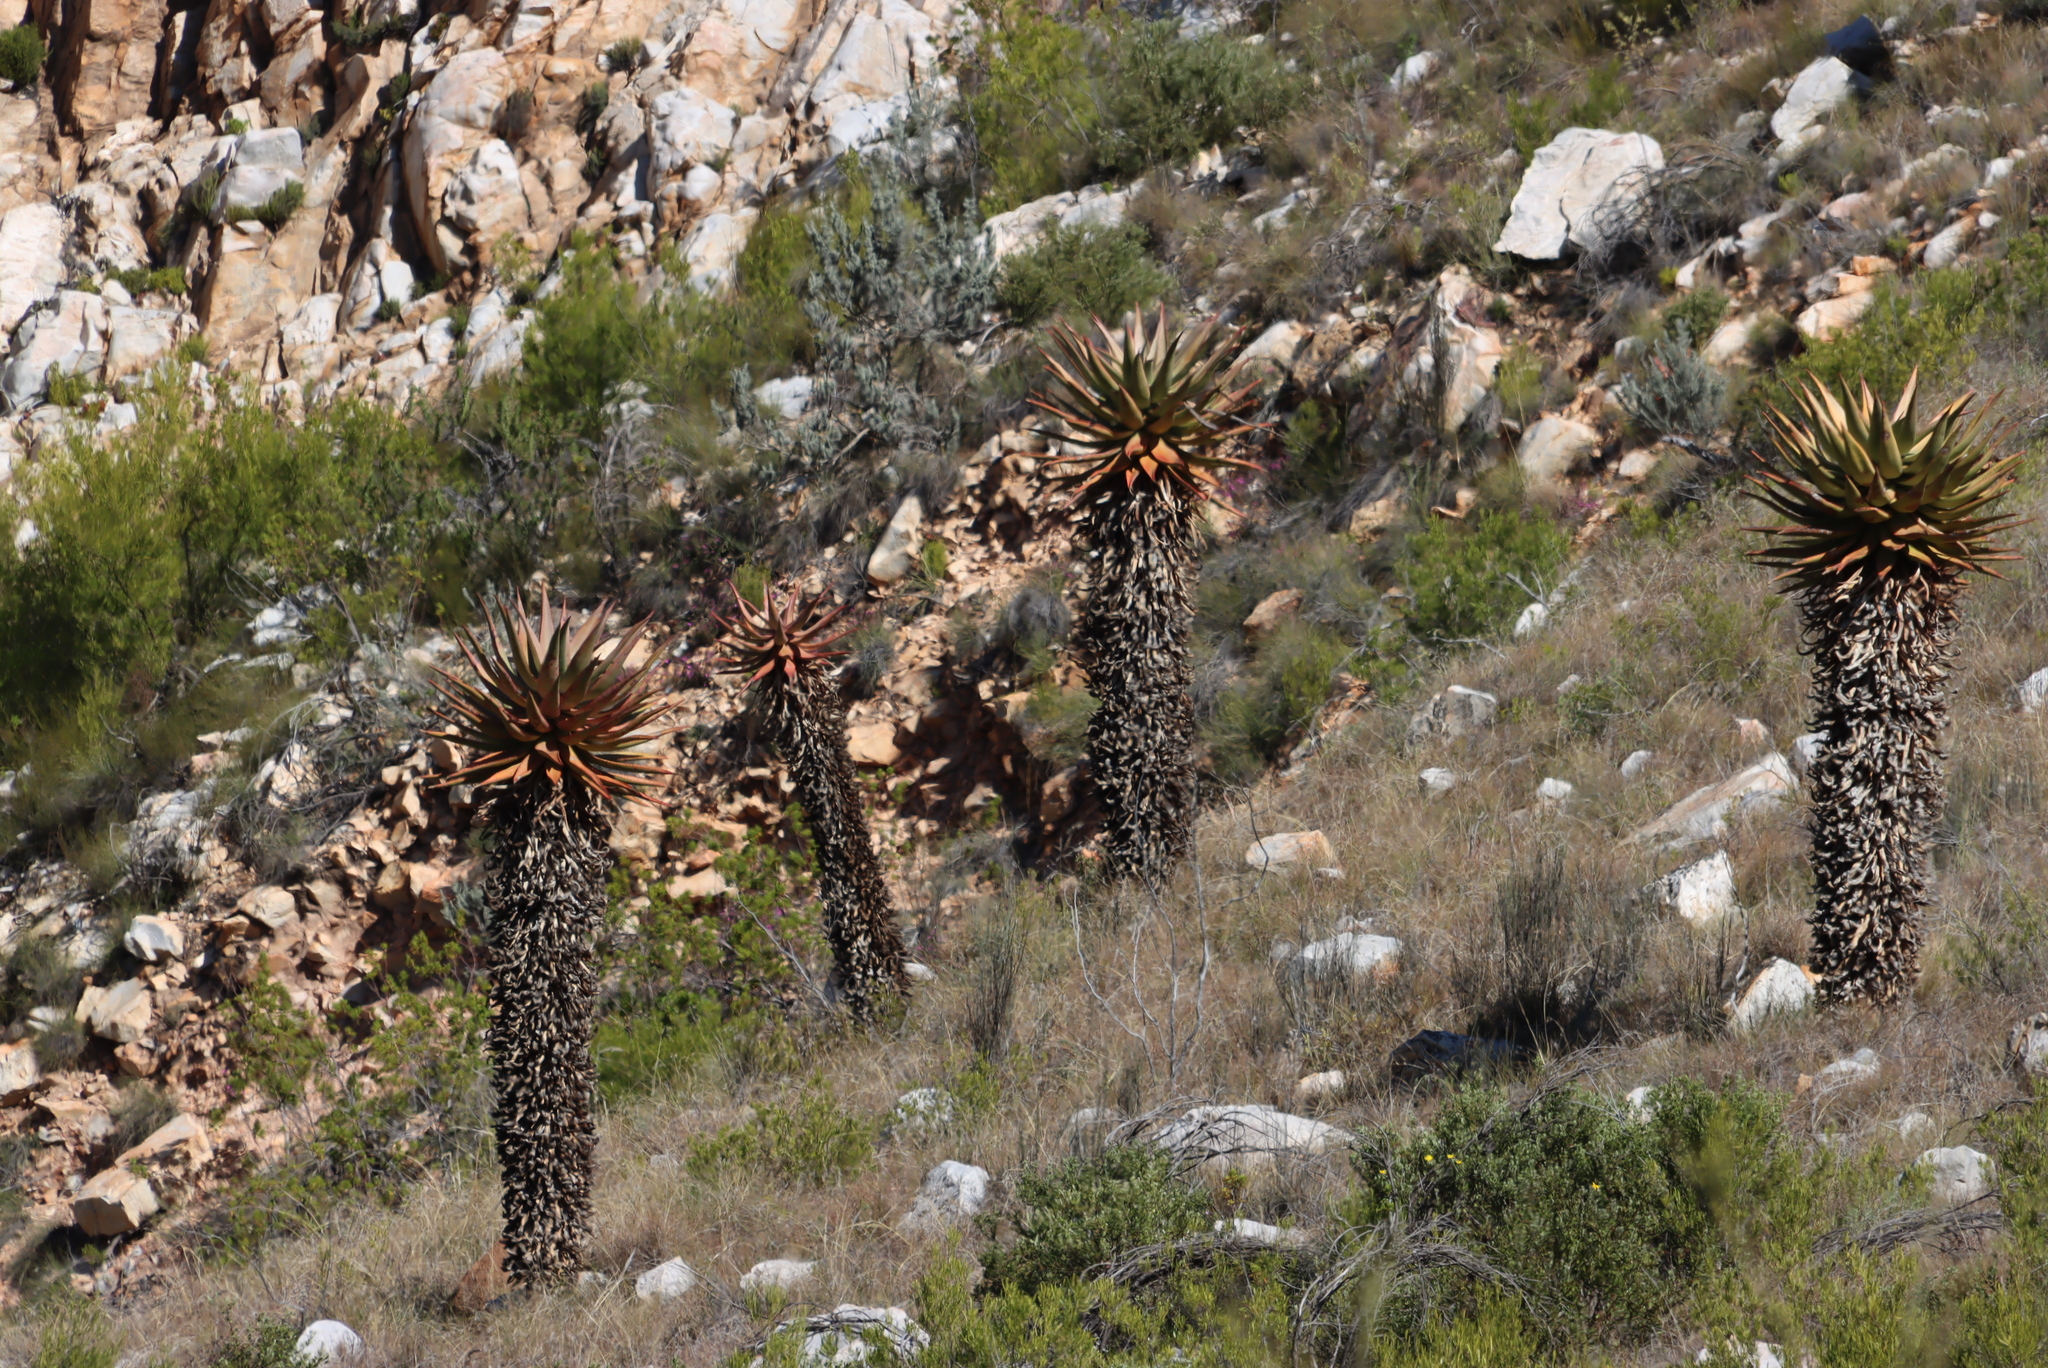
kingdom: Plantae
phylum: Tracheophyta
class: Liliopsida
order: Asparagales
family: Asphodelaceae
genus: Aloe
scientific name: Aloe ferox
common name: Bitter aloe
